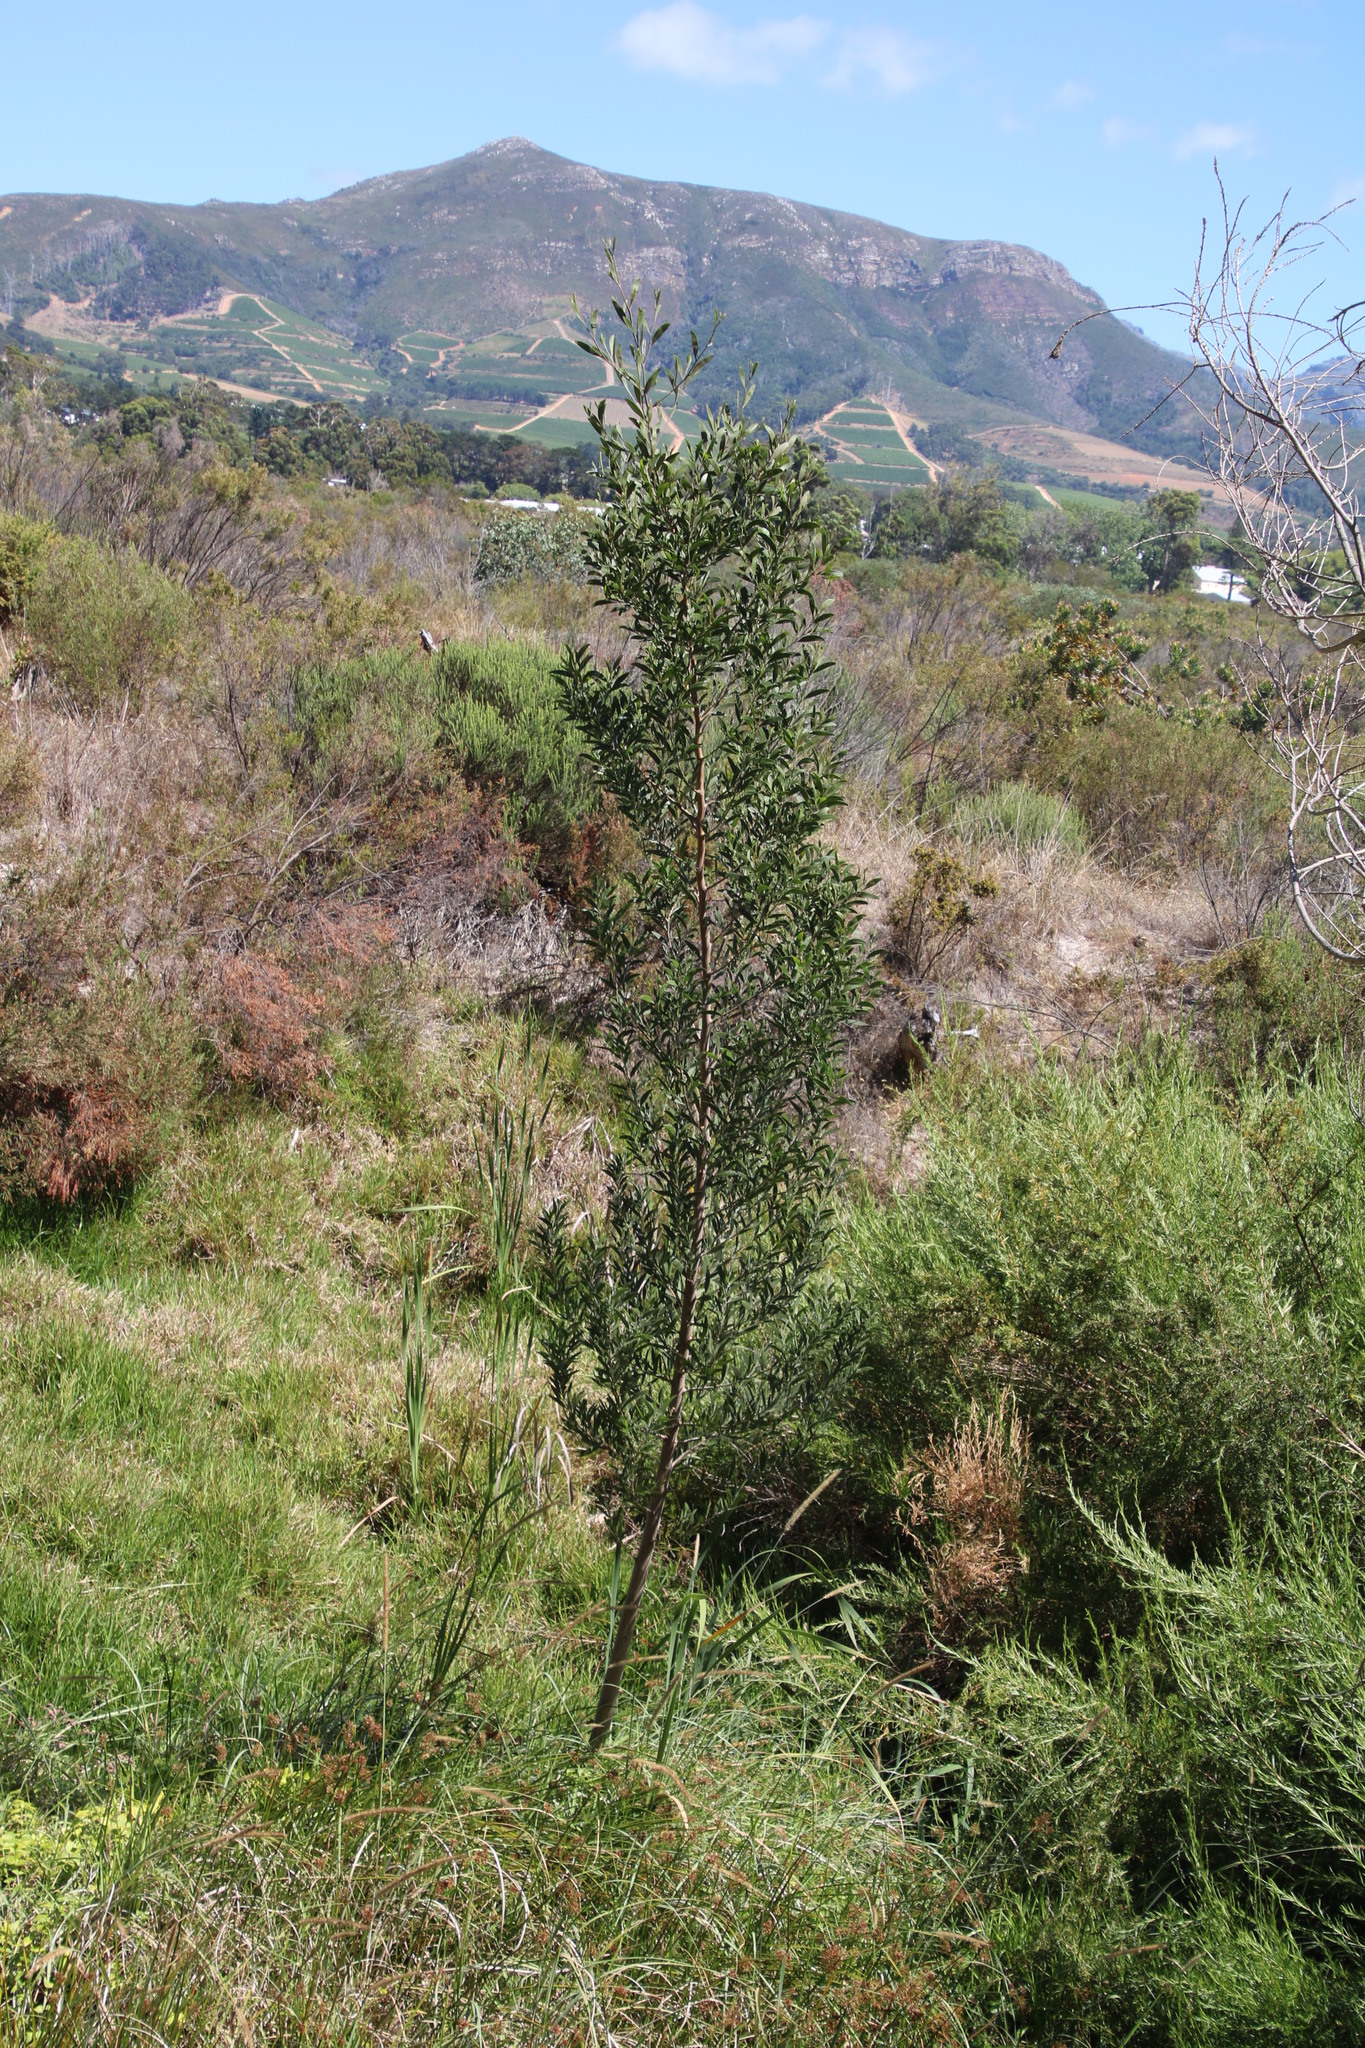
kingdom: Plantae
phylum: Tracheophyta
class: Magnoliopsida
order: Fabales
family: Fabaceae
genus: Acacia
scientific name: Acacia melanoxylon
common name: Blackwood
